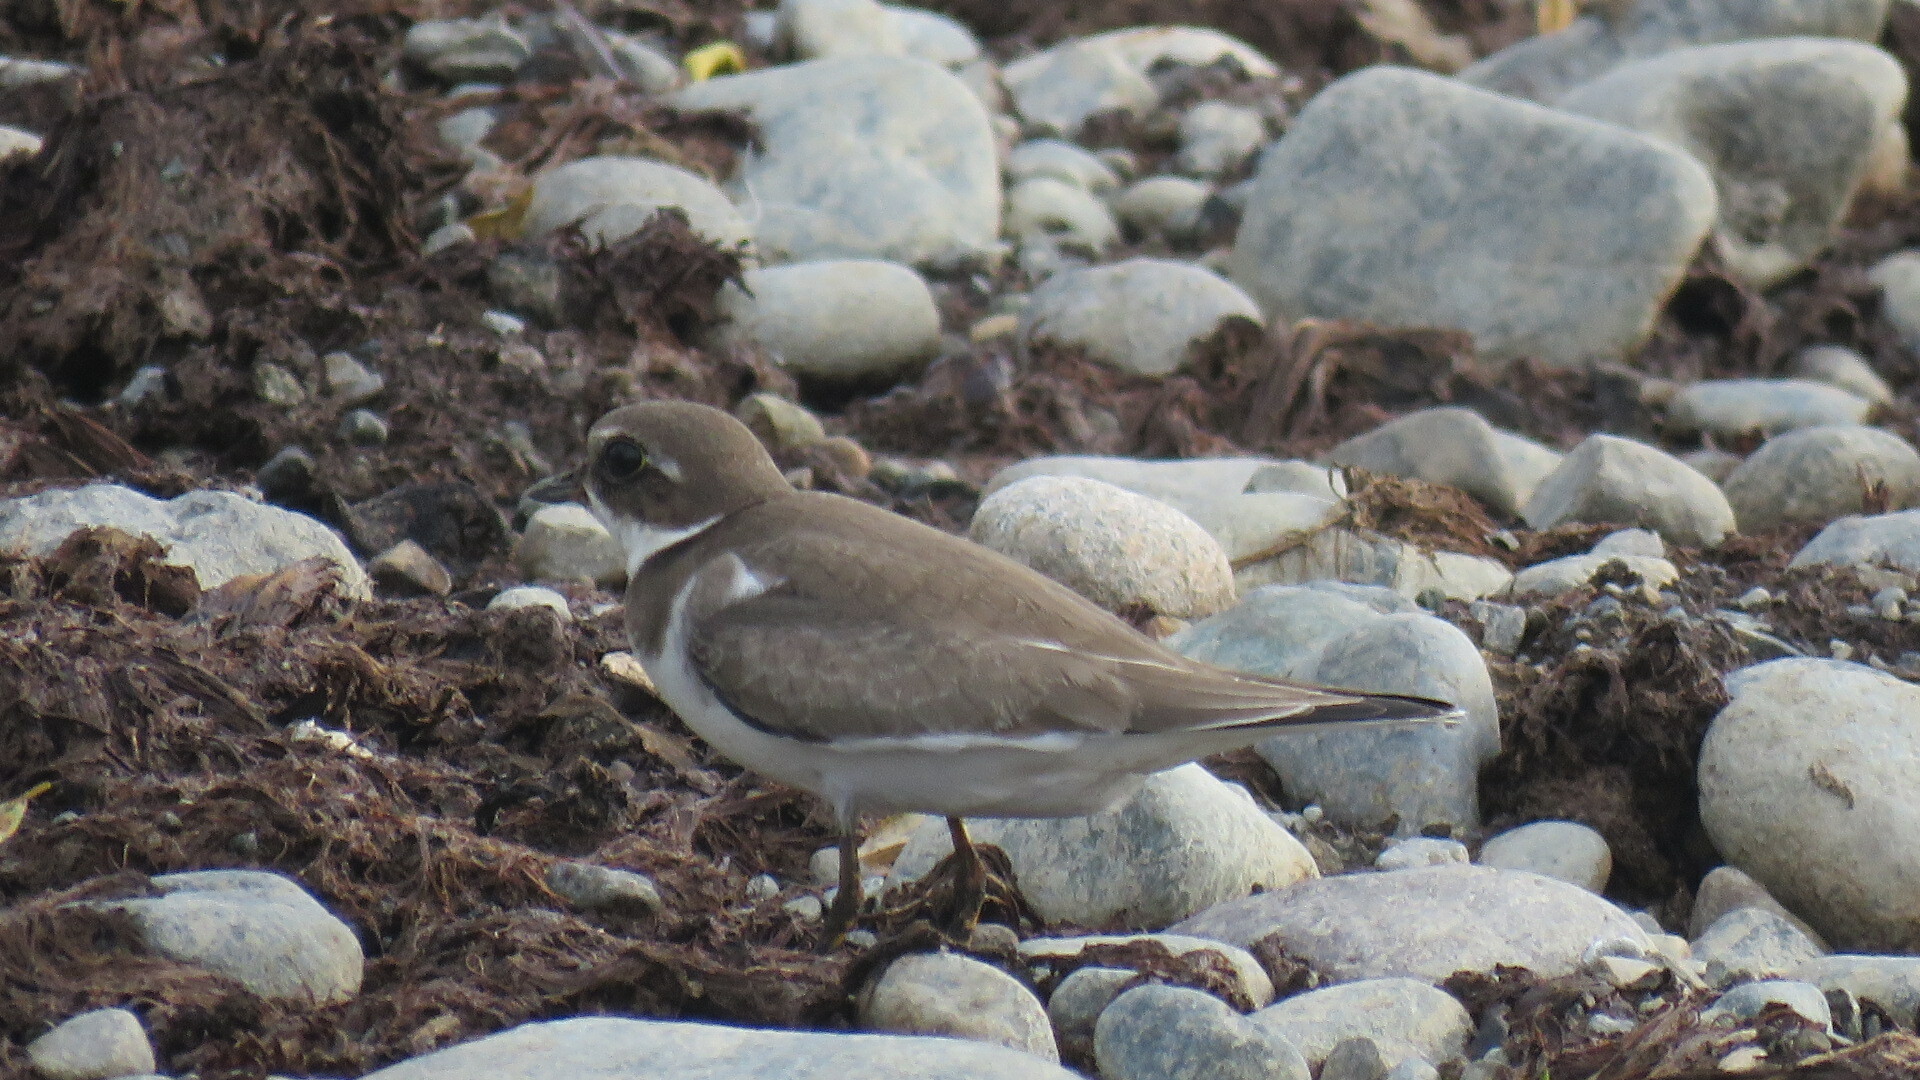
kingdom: Animalia
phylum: Chordata
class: Aves
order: Charadriiformes
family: Charadriidae
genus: Charadrius
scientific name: Charadrius semipalmatus
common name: Semipalmated plover
